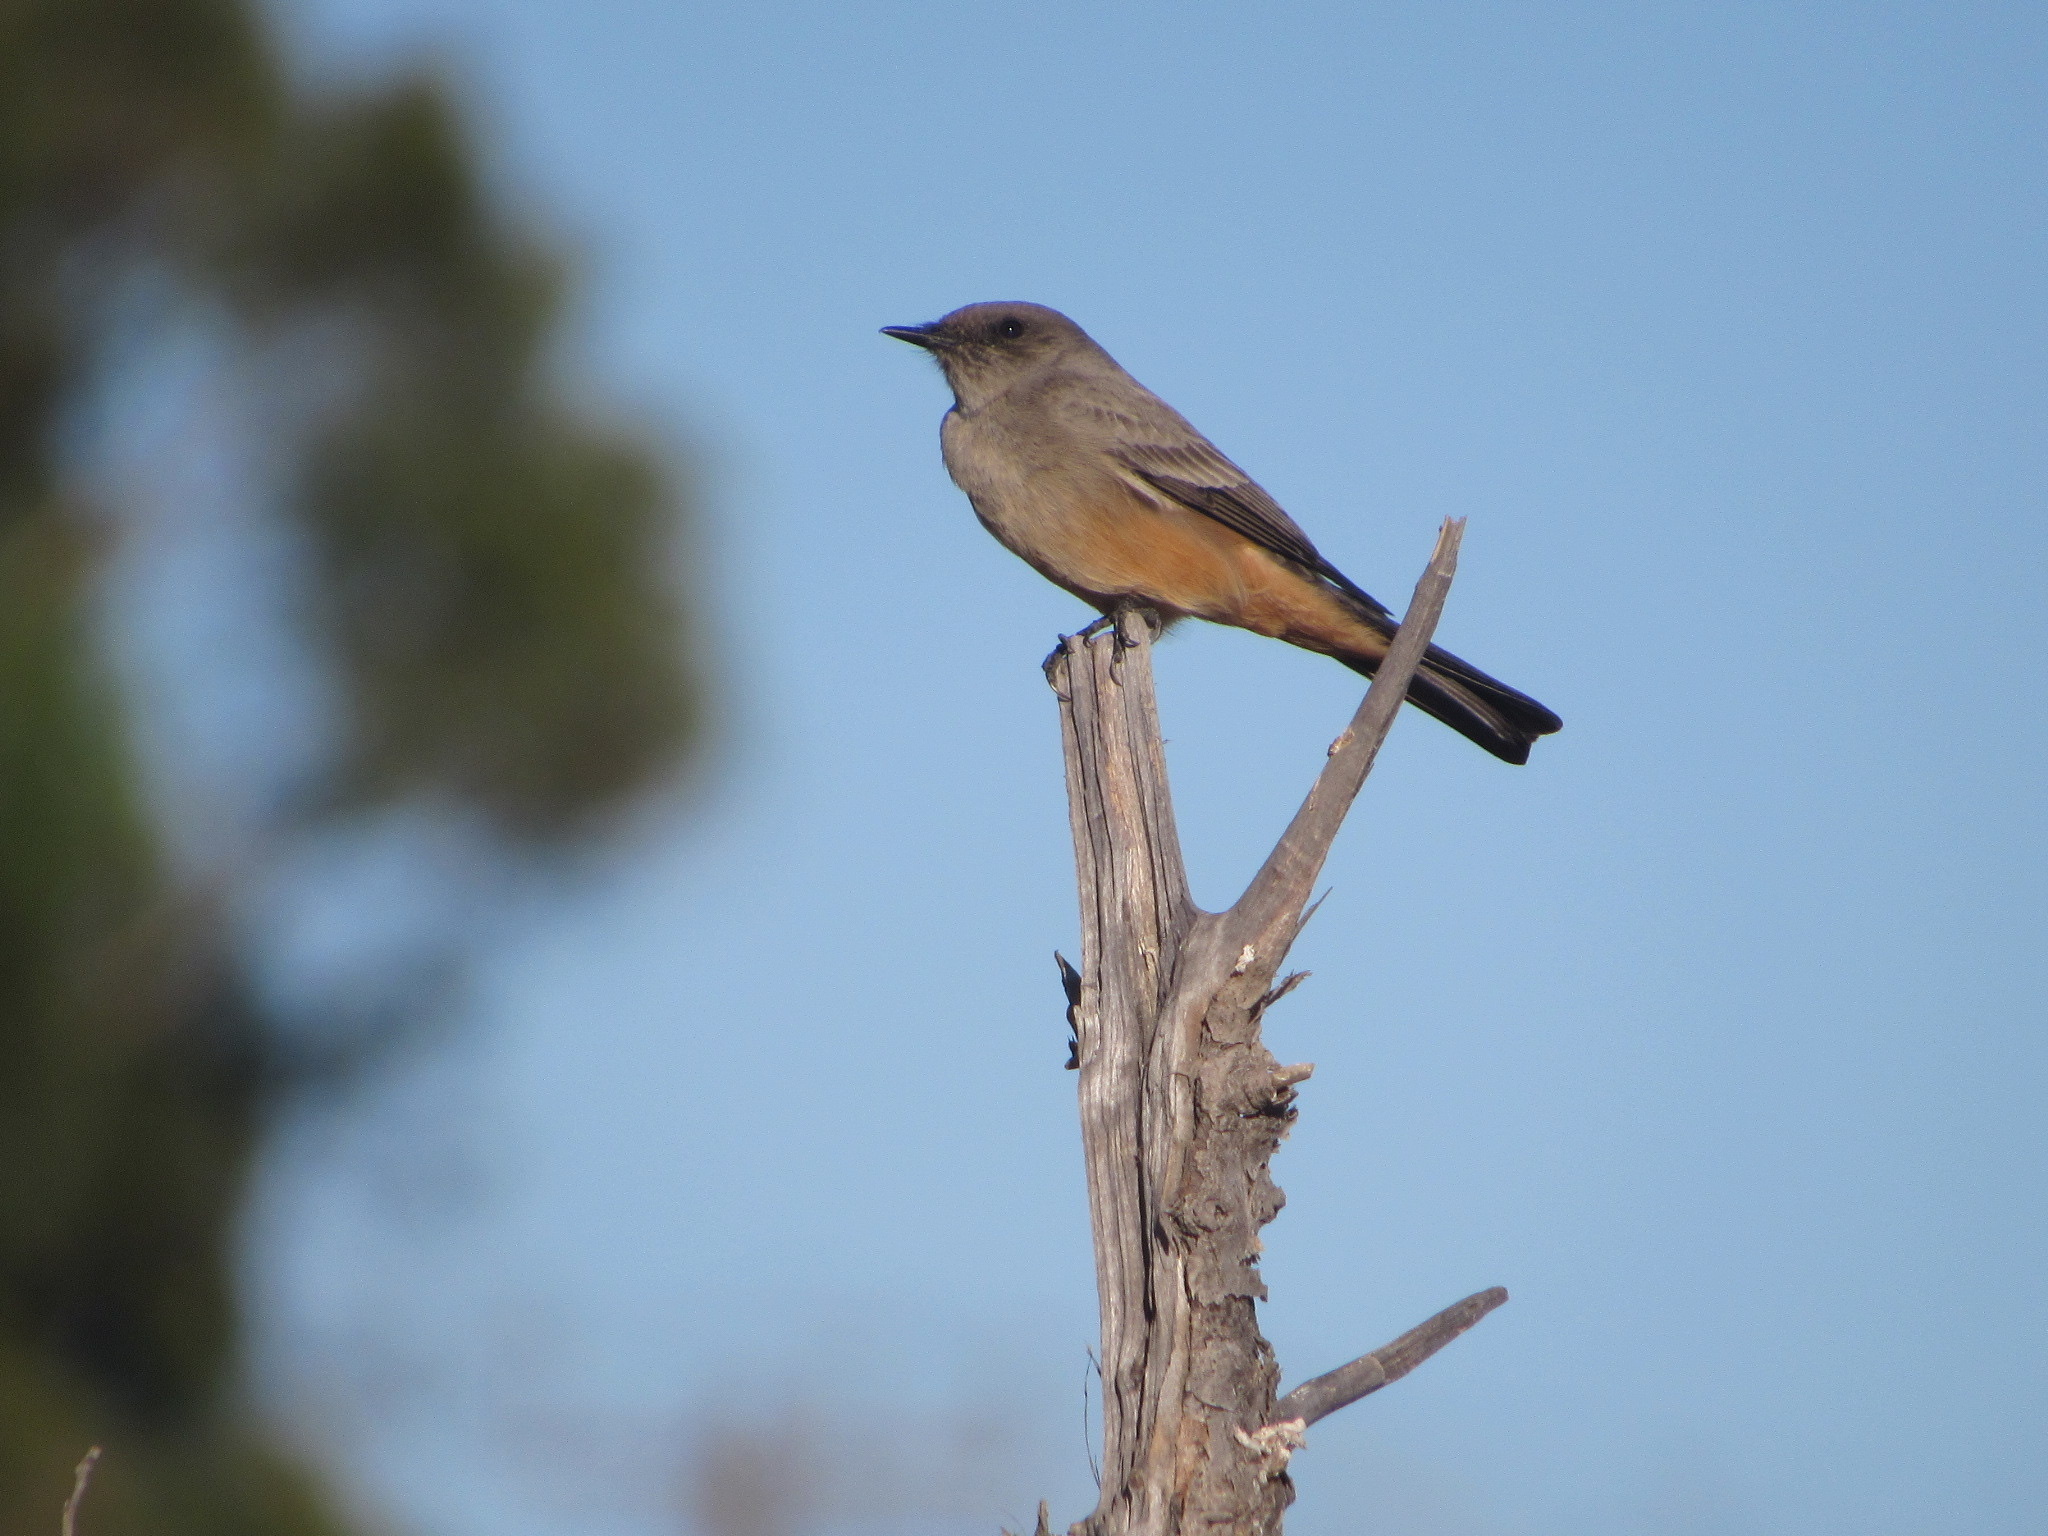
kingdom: Animalia
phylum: Chordata
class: Aves
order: Passeriformes
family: Tyrannidae
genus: Sayornis
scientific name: Sayornis saya
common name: Say's phoebe
